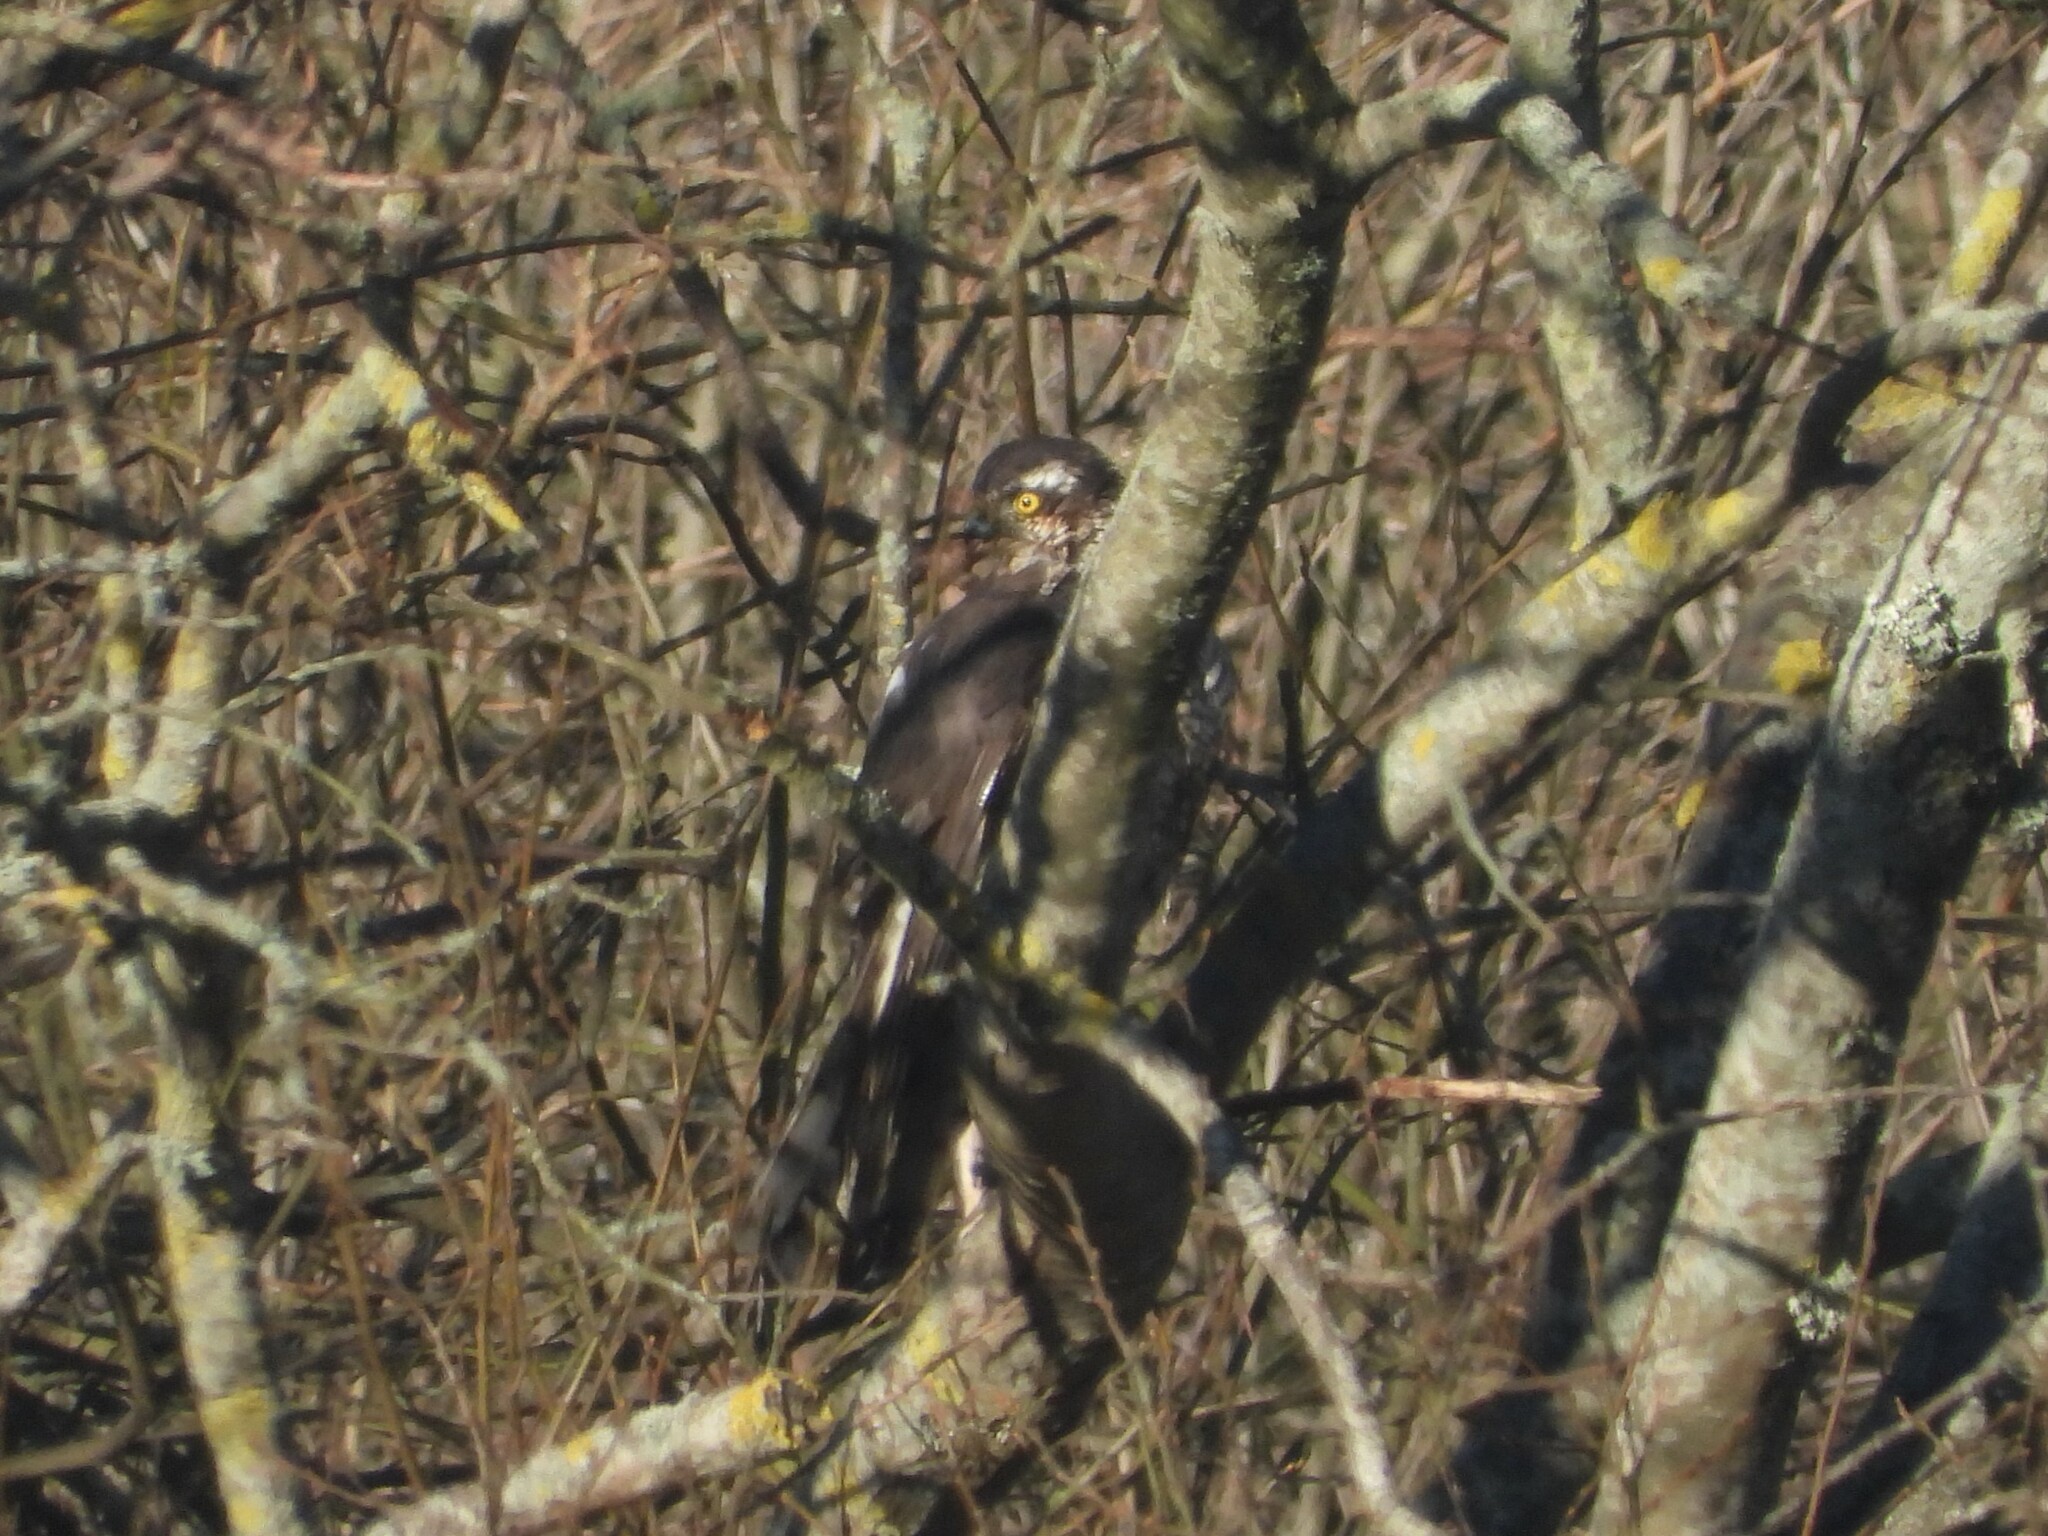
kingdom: Animalia
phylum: Chordata
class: Aves
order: Accipitriformes
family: Accipitridae
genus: Accipiter
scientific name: Accipiter nisus
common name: Eurasian sparrowhawk
